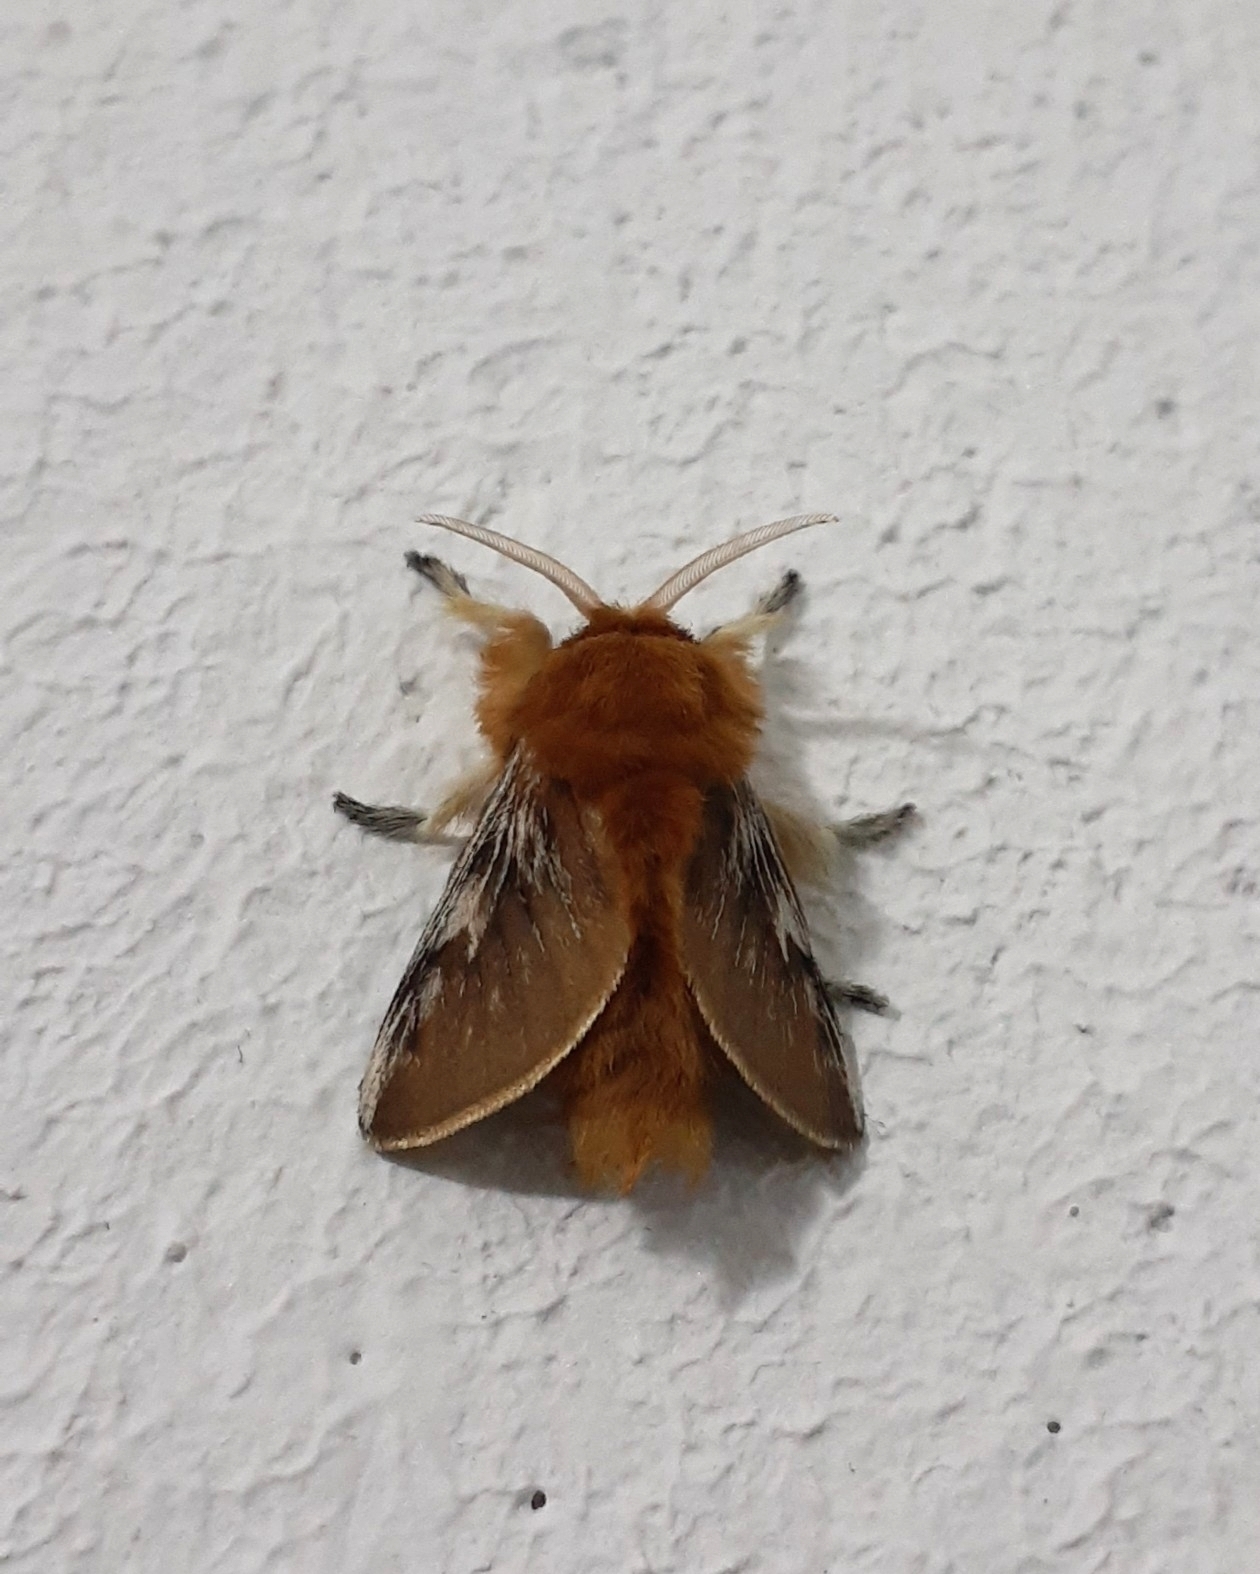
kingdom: Animalia
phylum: Arthropoda
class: Insecta
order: Lepidoptera
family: Megalopygidae
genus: Megalopyge
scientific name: Megalopyge inca
